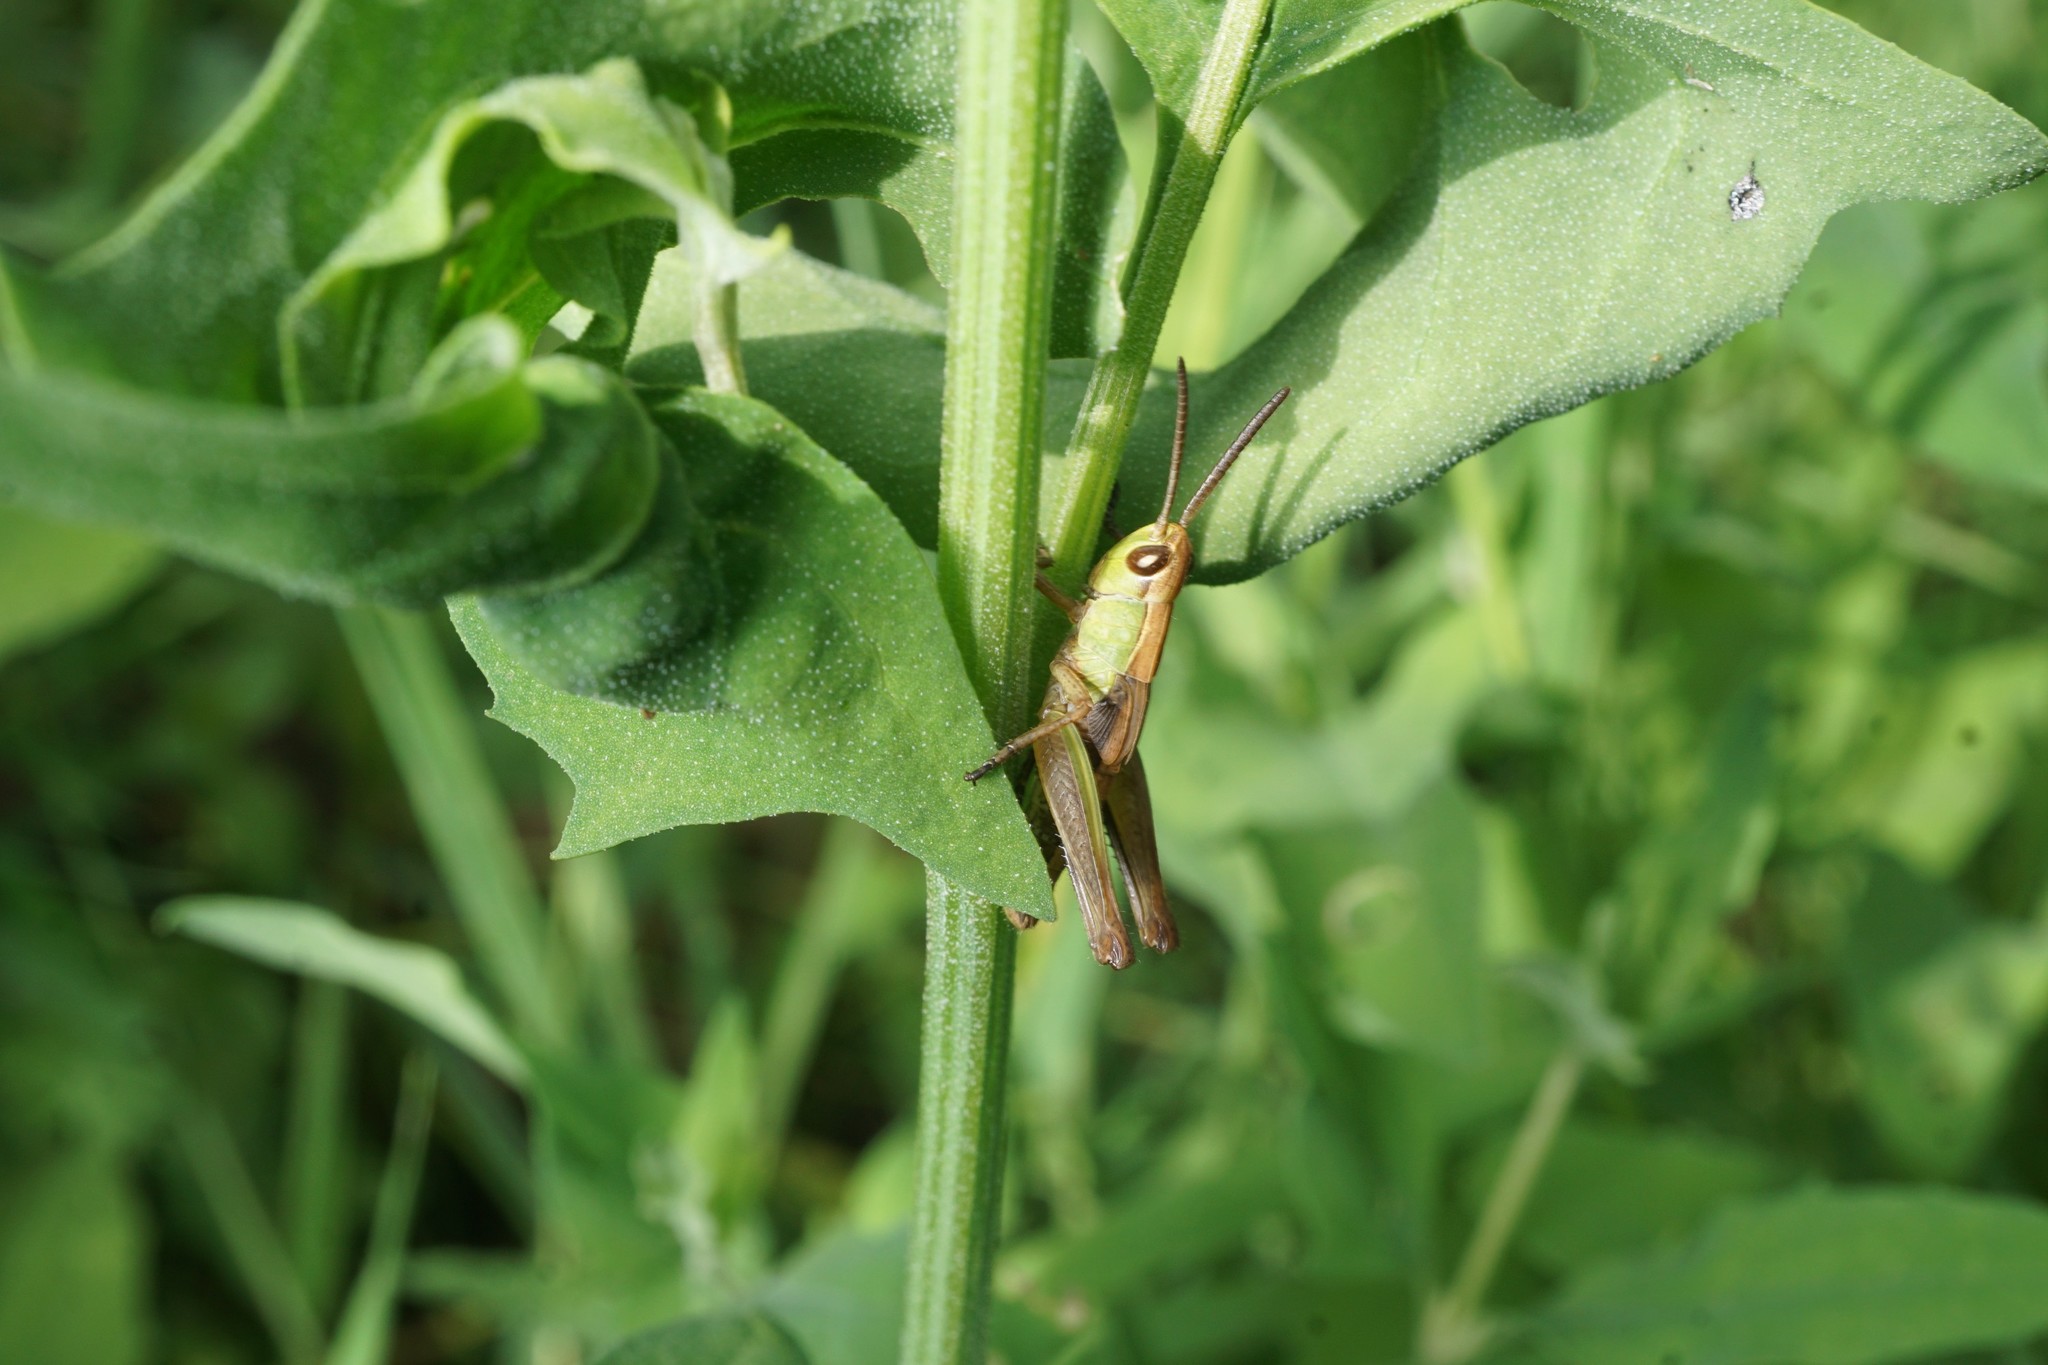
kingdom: Animalia
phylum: Arthropoda
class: Insecta
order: Orthoptera
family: Acrididae
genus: Pseudochorthippus
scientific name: Pseudochorthippus parallelus
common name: Meadow grasshopper
